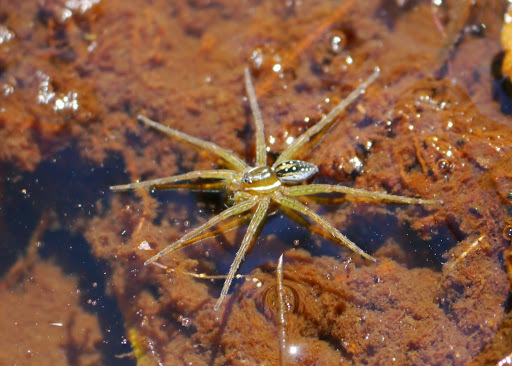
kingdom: Animalia
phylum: Arthropoda
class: Arachnida
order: Araneae
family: Pisauridae
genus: Dolomedes
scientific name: Dolomedes triton
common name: Six-spotted fishing spider
